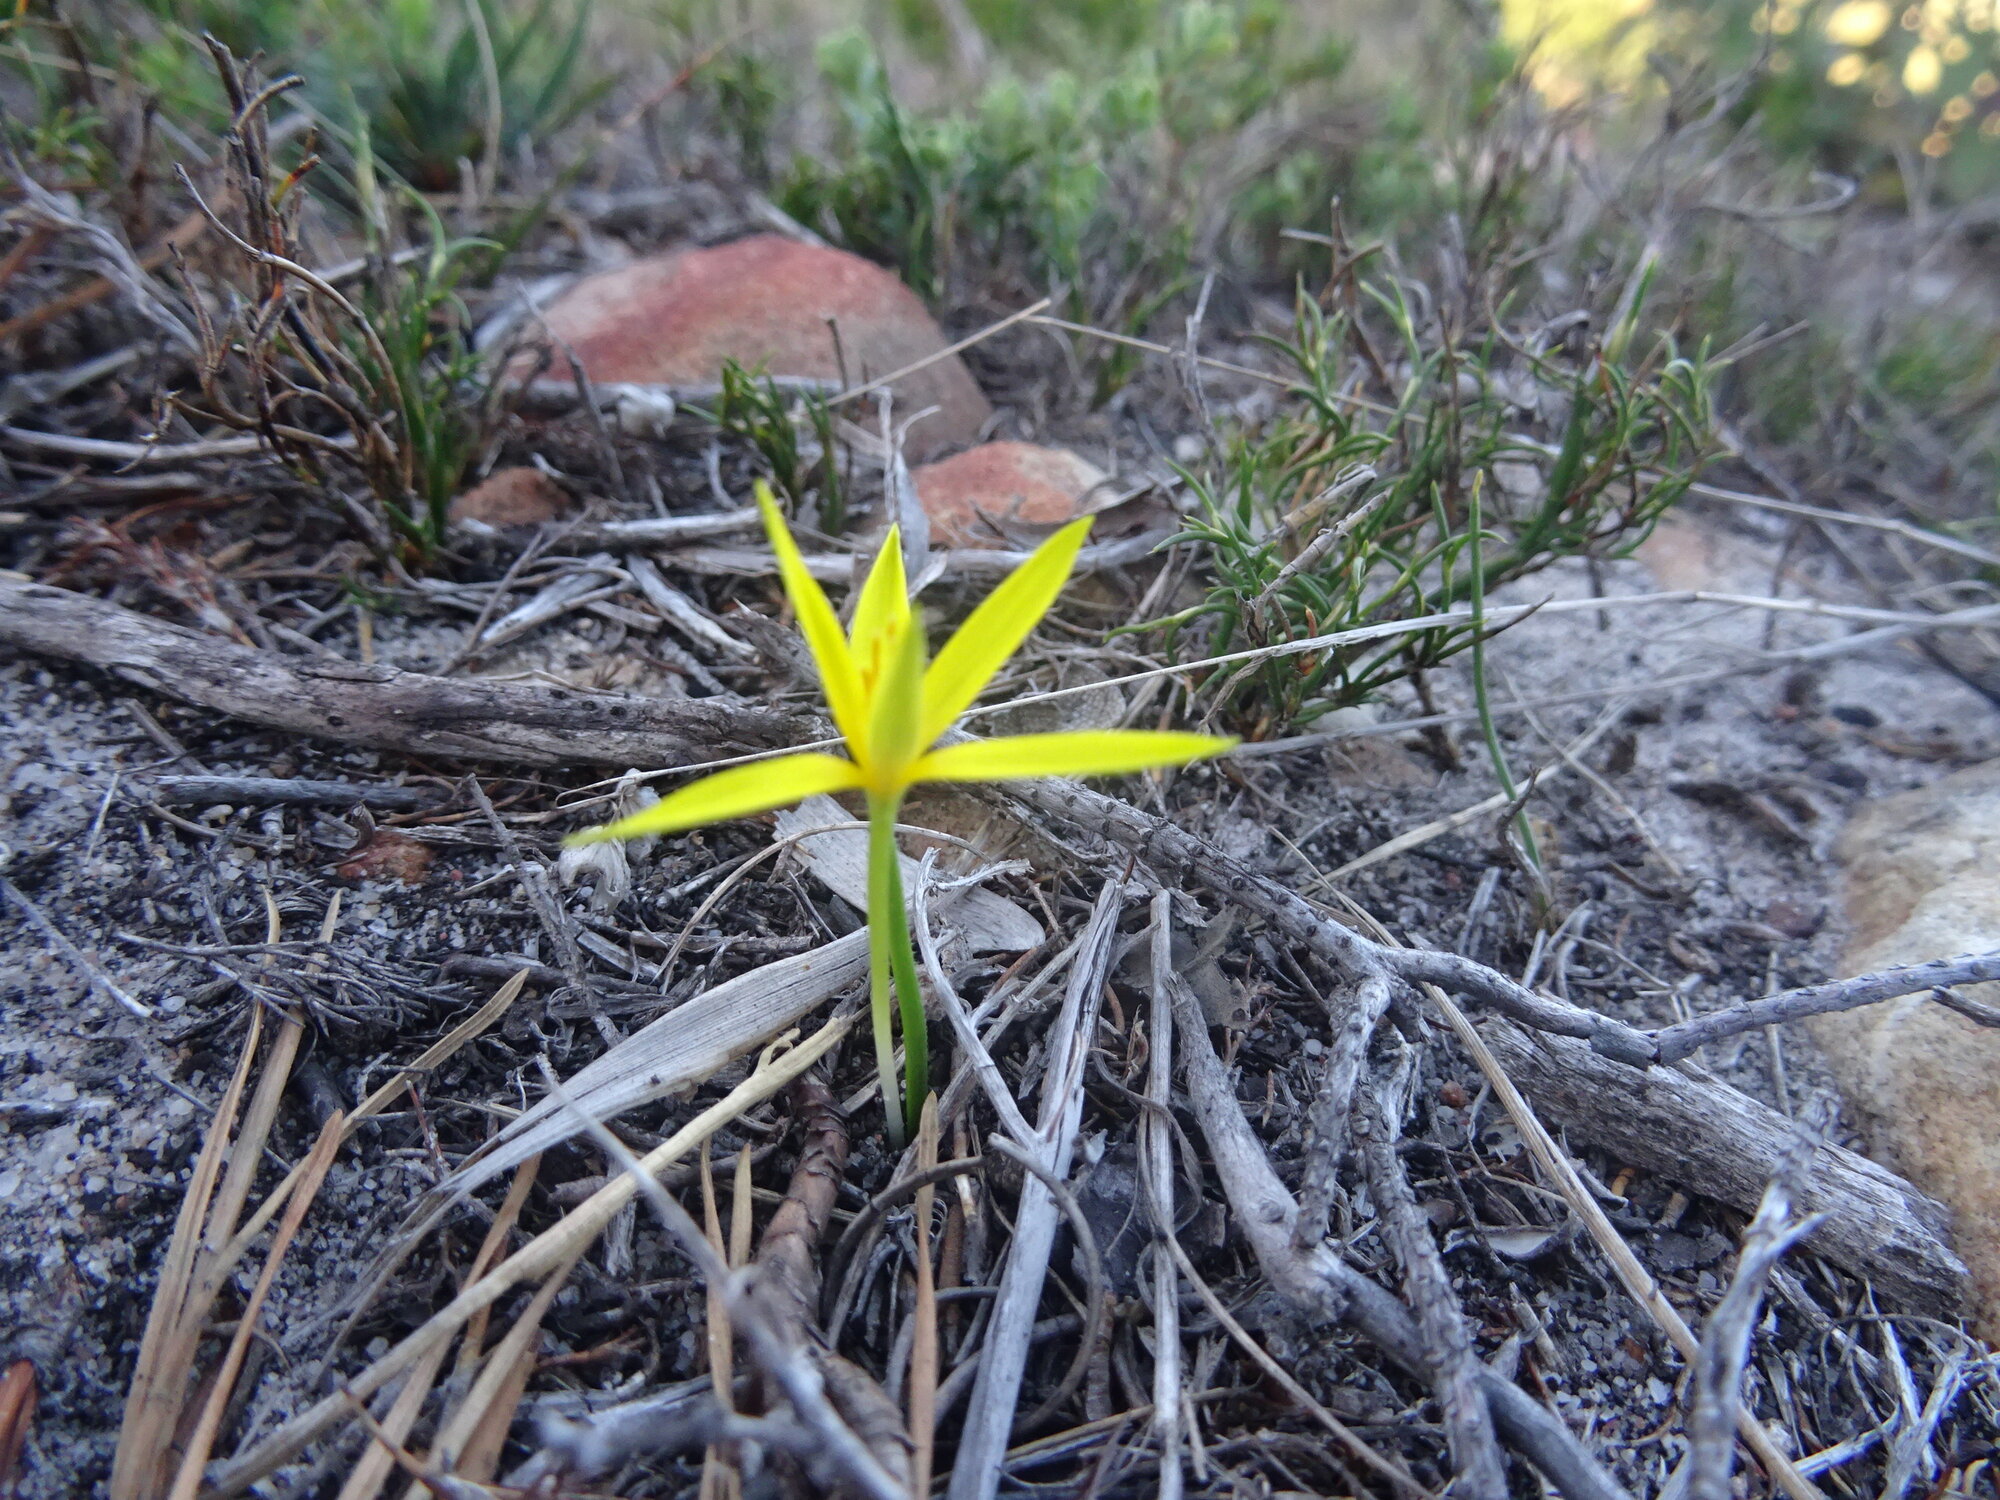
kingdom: Plantae
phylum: Tracheophyta
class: Liliopsida
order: Asparagales
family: Hypoxidaceae
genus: Empodium
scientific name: Empodium plicatum
